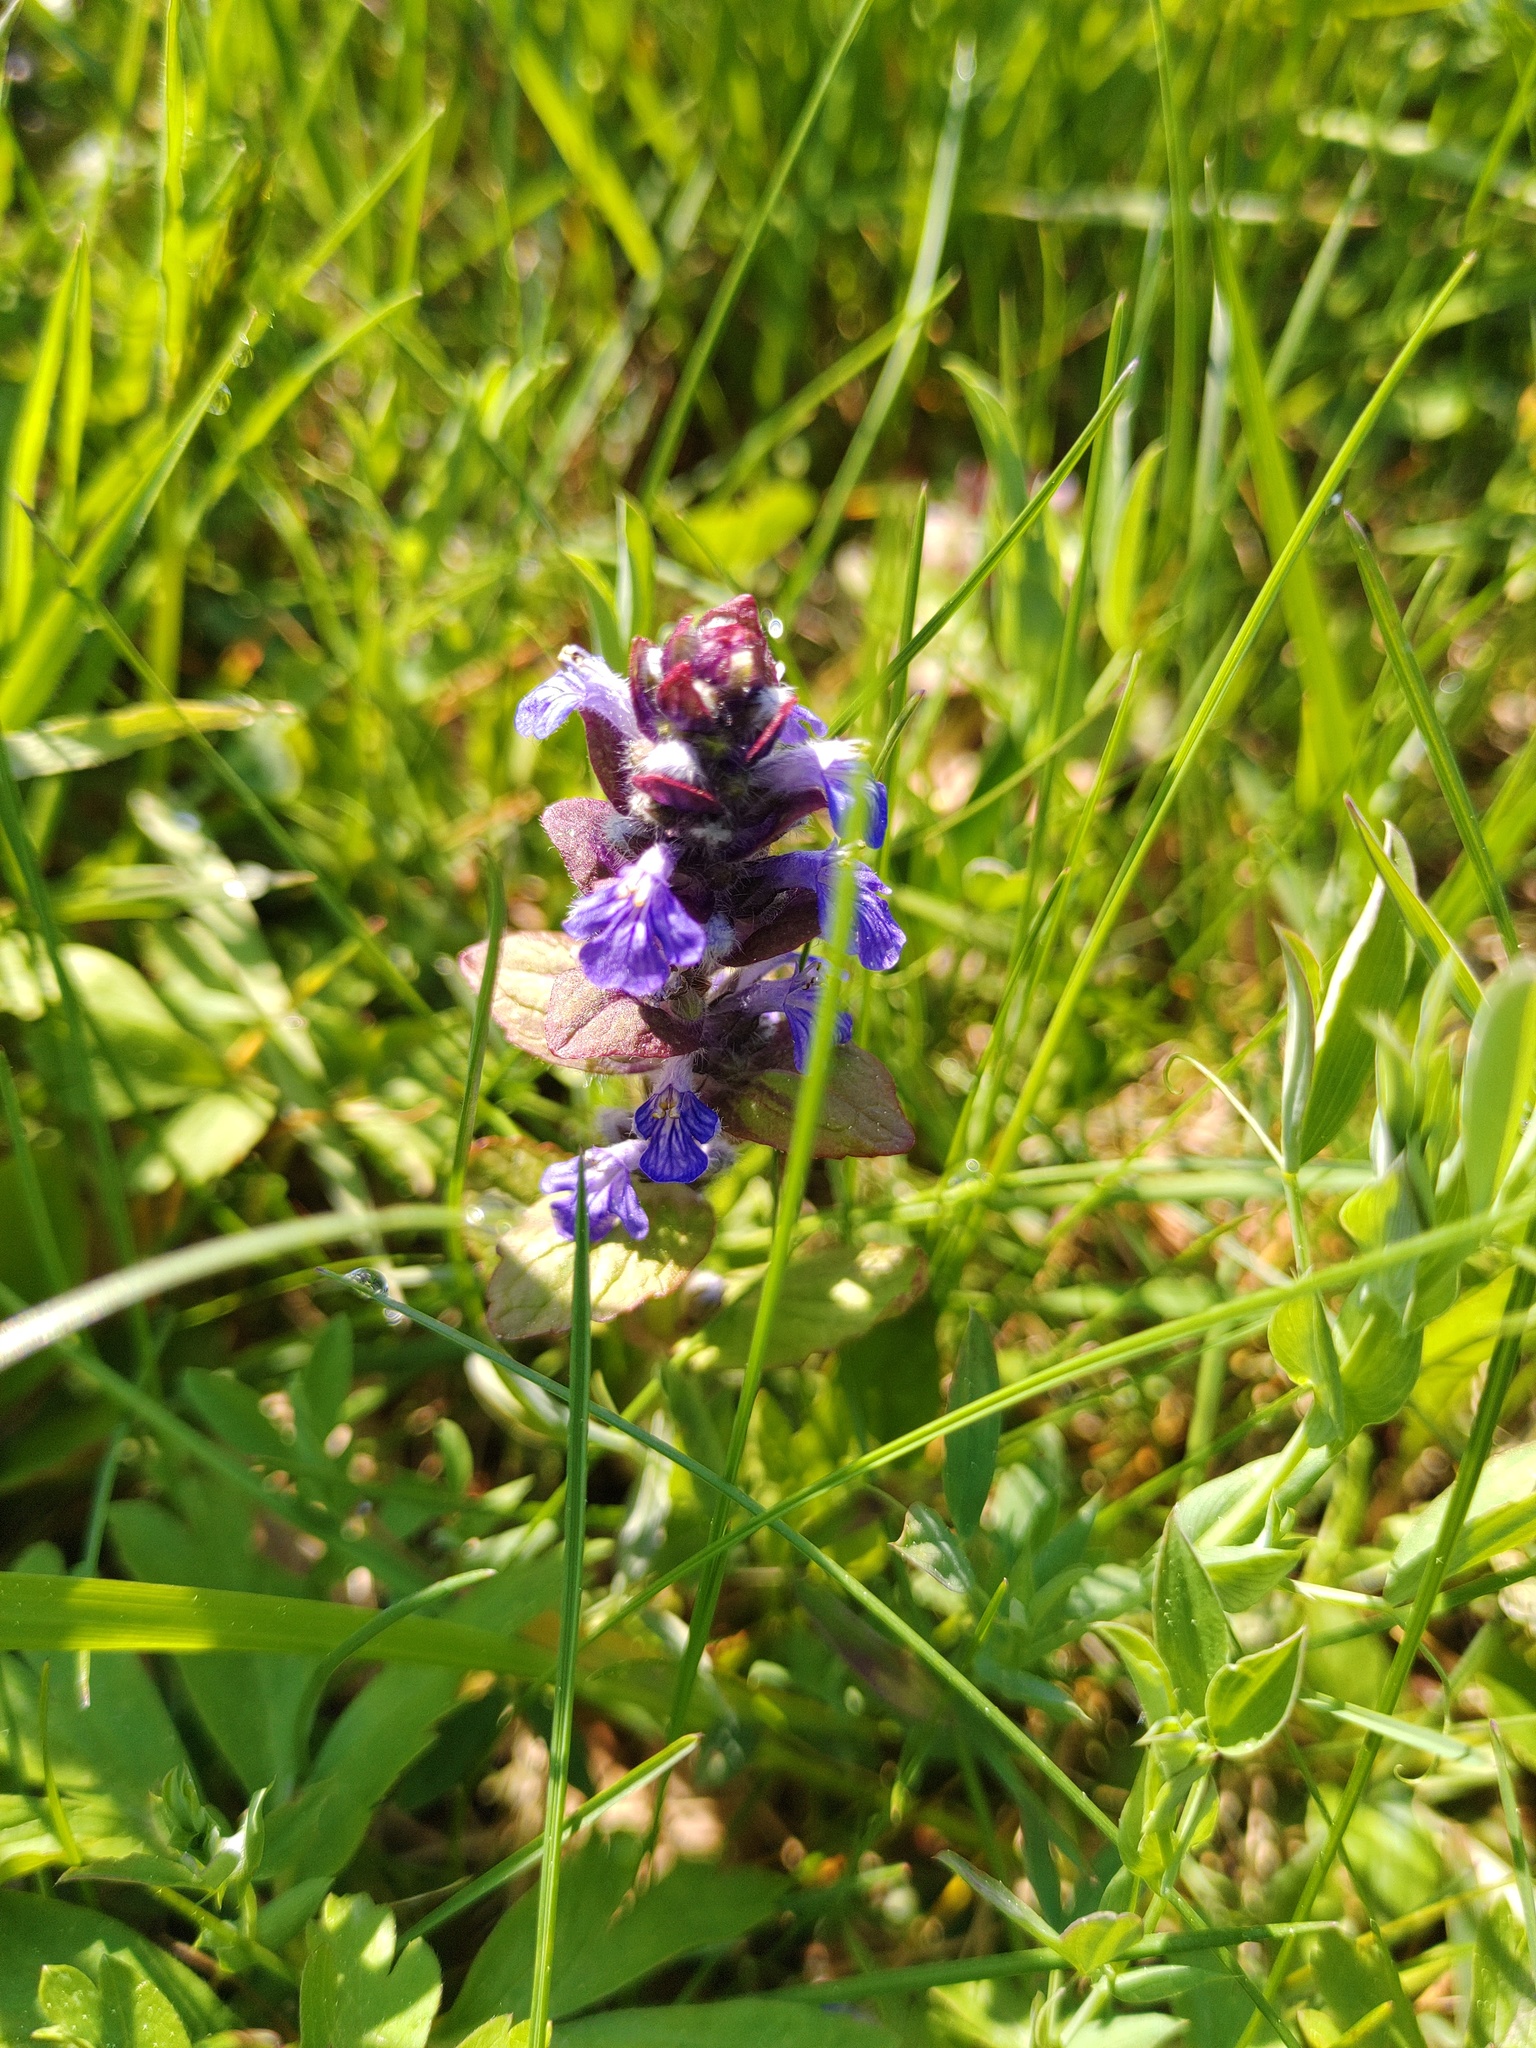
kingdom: Plantae
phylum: Tracheophyta
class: Magnoliopsida
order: Lamiales
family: Lamiaceae
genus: Ajuga
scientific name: Ajuga reptans
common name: Bugle
